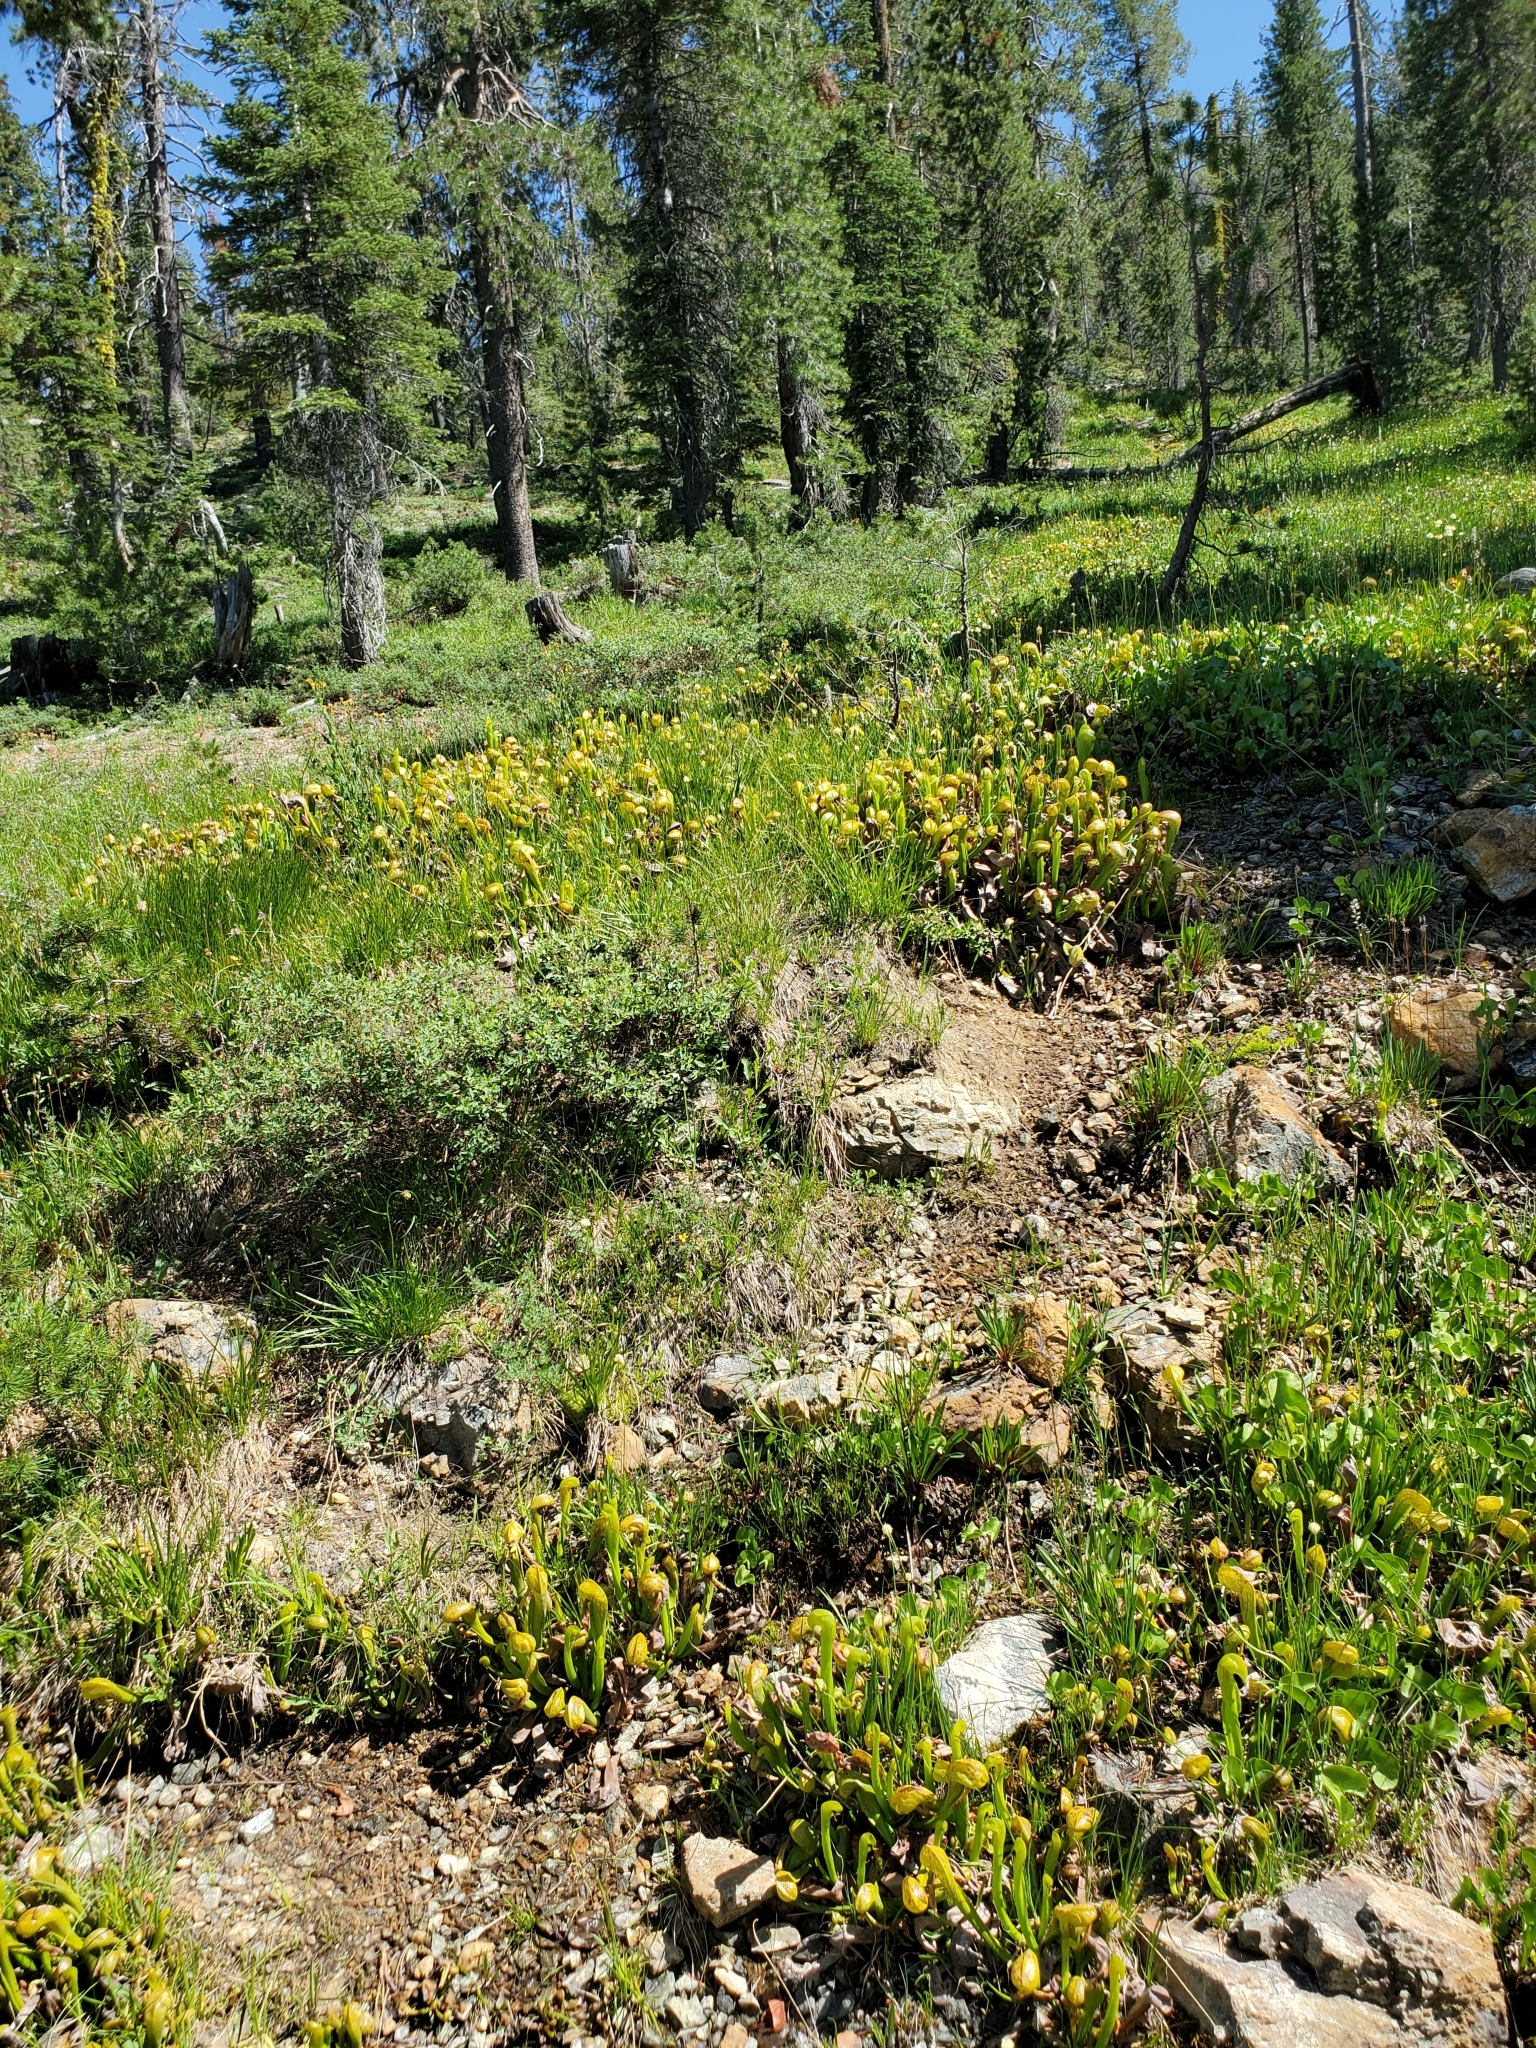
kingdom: Plantae
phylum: Tracheophyta
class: Magnoliopsida
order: Ericales
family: Sarraceniaceae
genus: Darlingtonia
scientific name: Darlingtonia californica
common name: California pitcher plant
